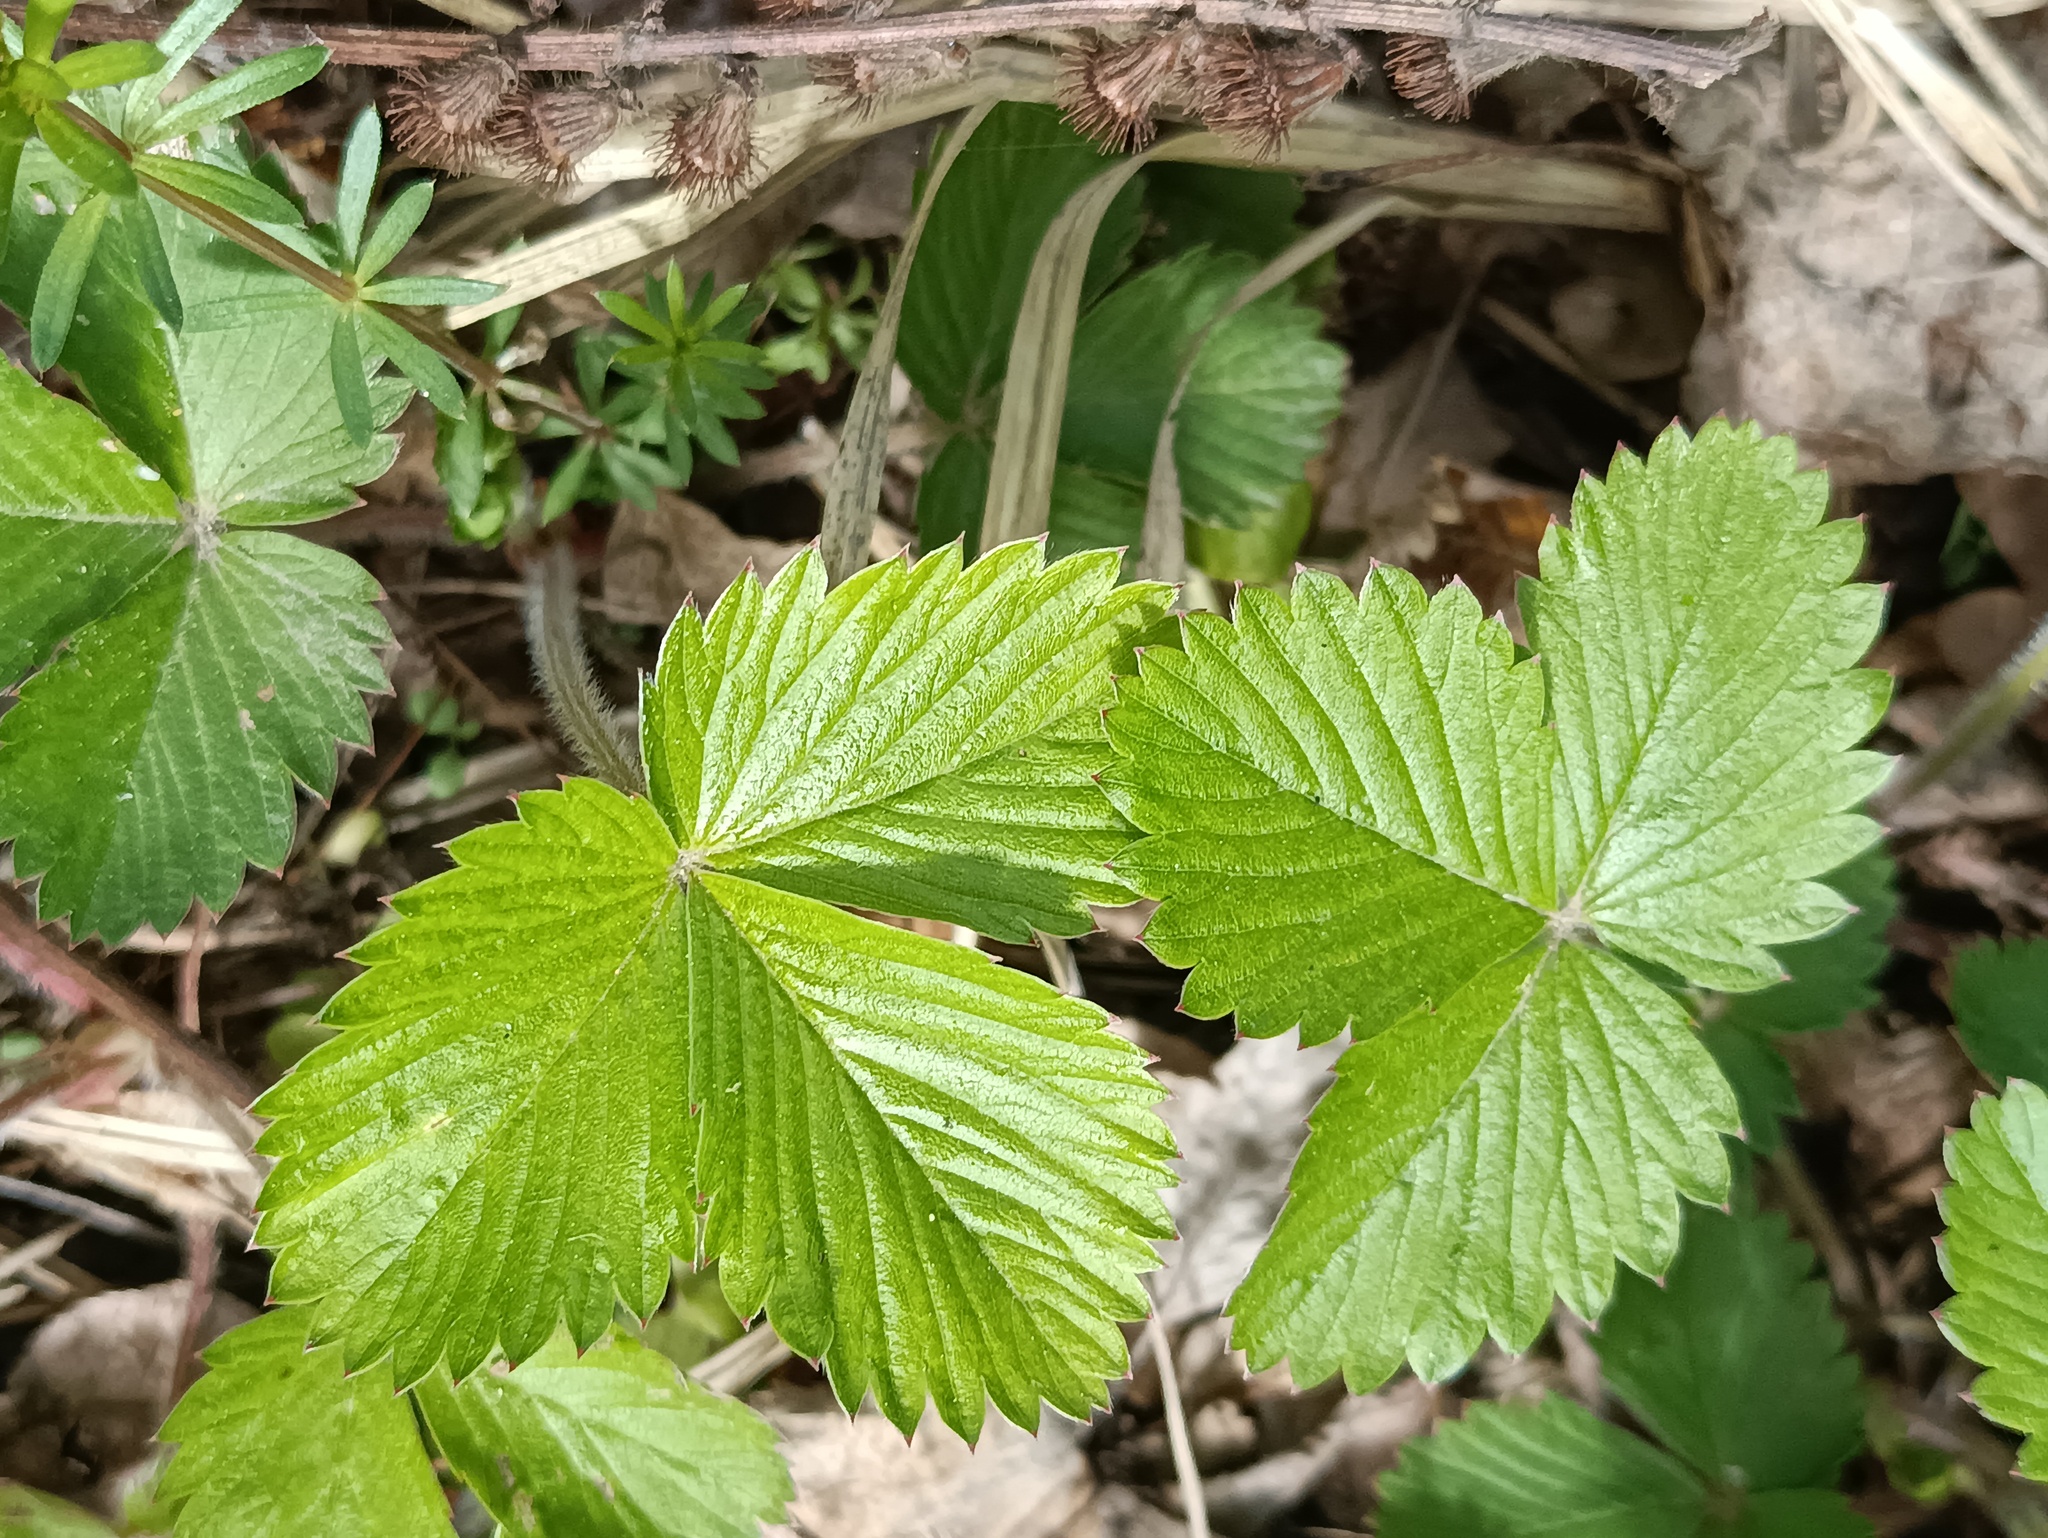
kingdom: Plantae
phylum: Tracheophyta
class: Magnoliopsida
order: Rosales
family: Rosaceae
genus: Fragaria
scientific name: Fragaria vesca
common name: Wild strawberry
